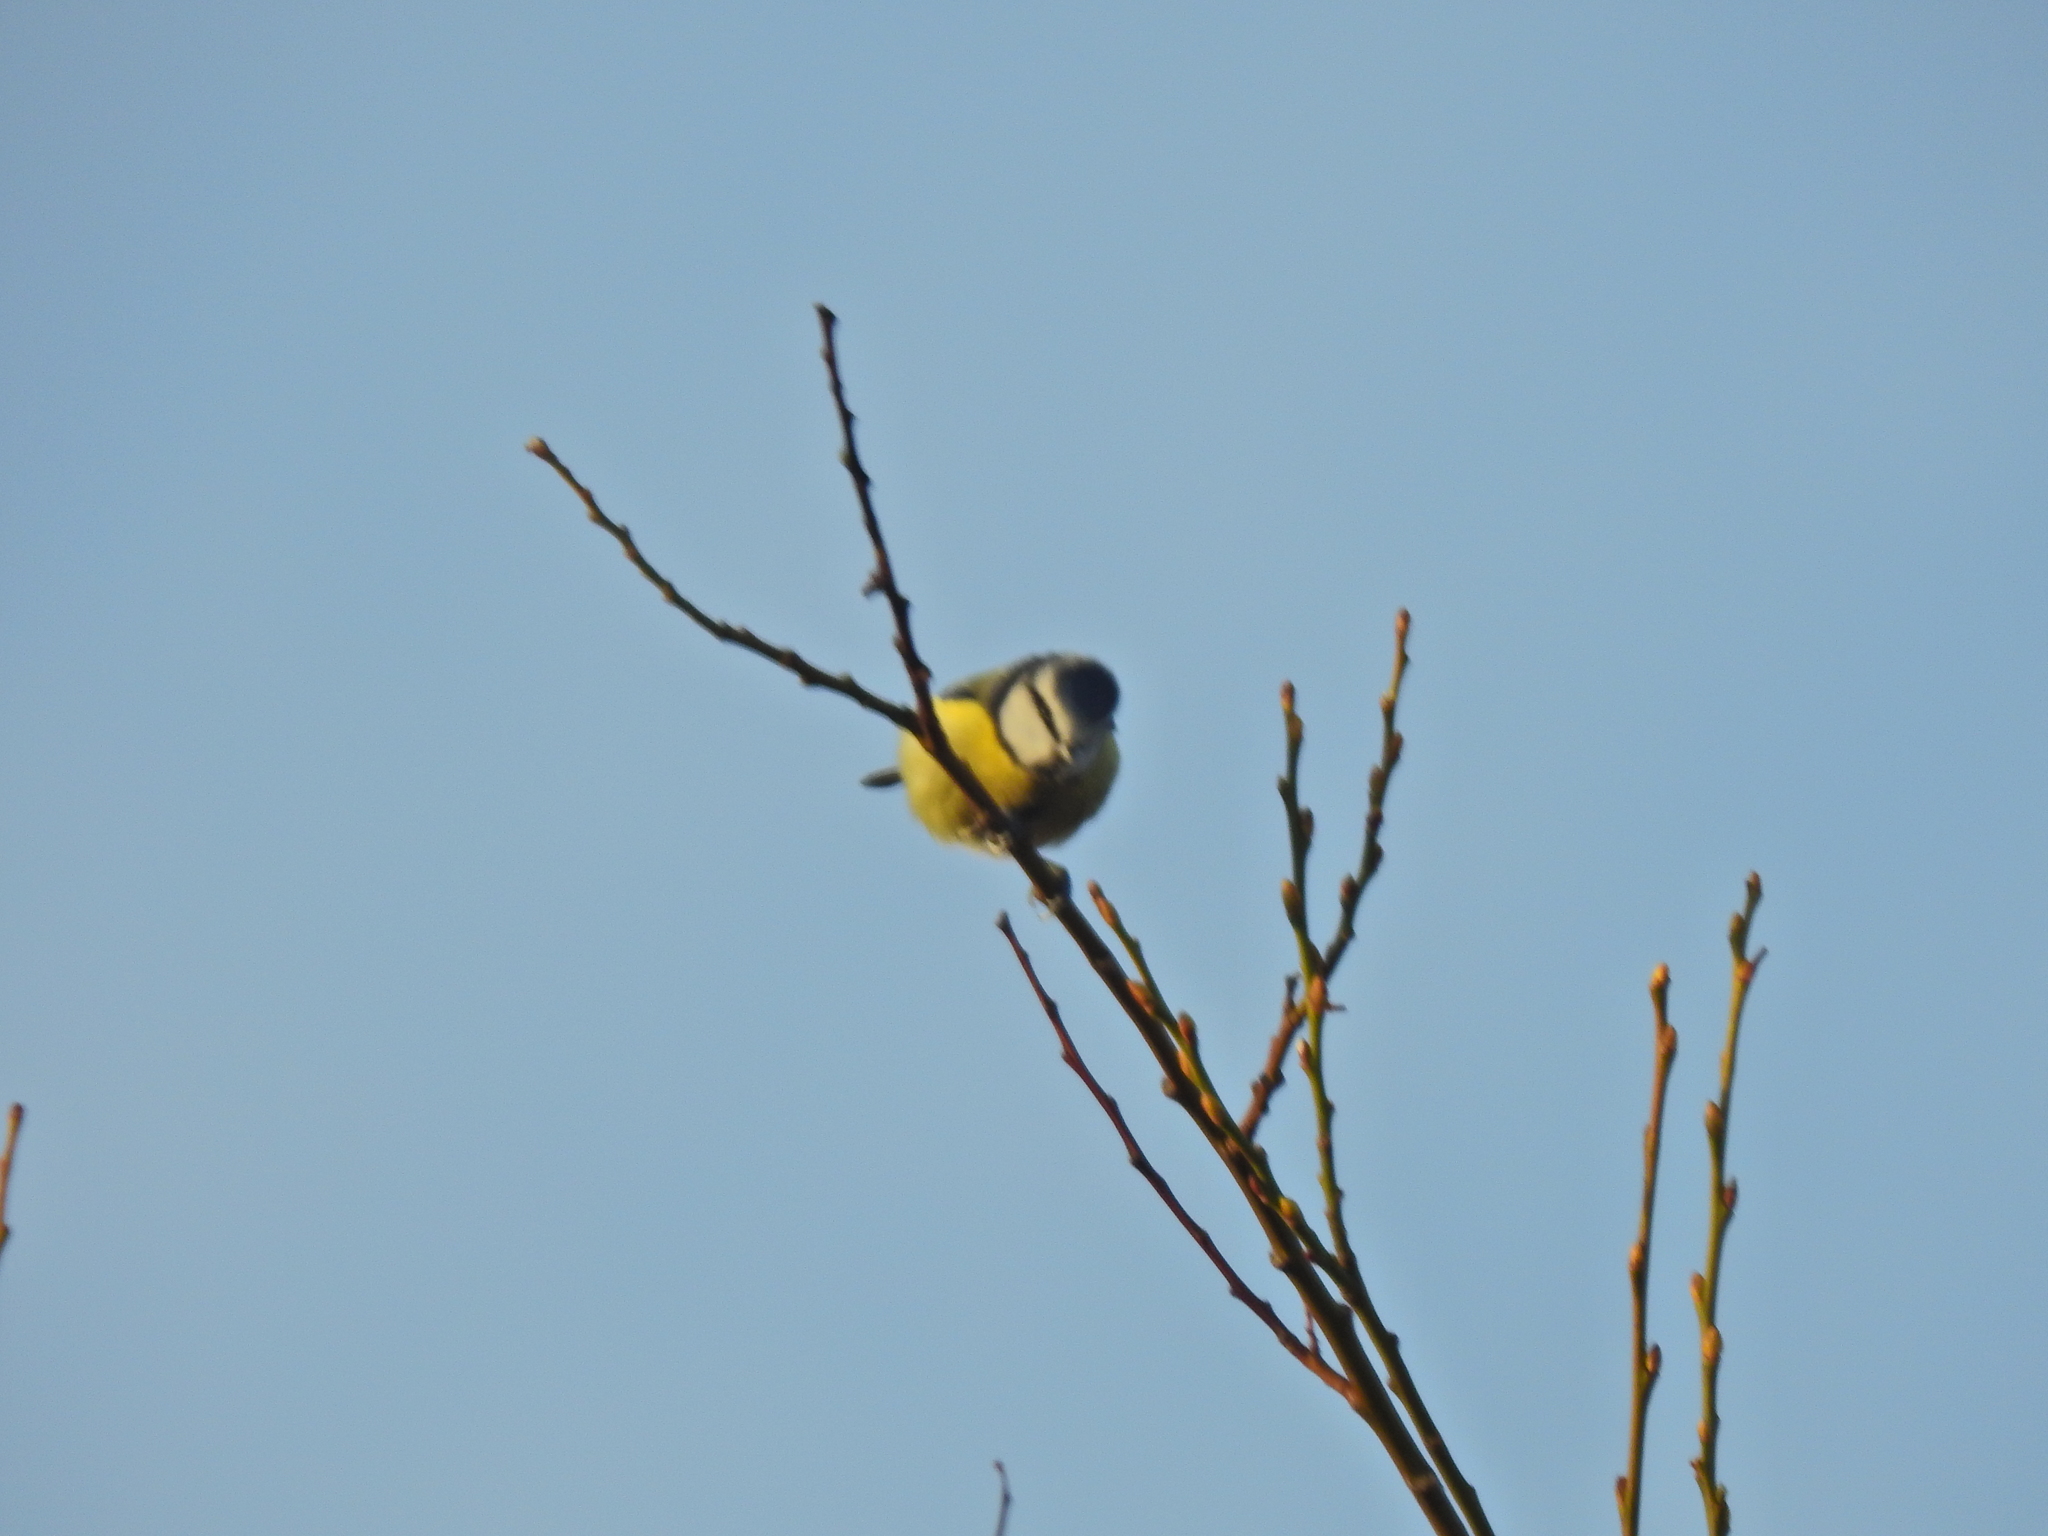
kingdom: Animalia
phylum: Chordata
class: Aves
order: Passeriformes
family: Paridae
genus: Cyanistes
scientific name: Cyanistes caeruleus
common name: Eurasian blue tit
